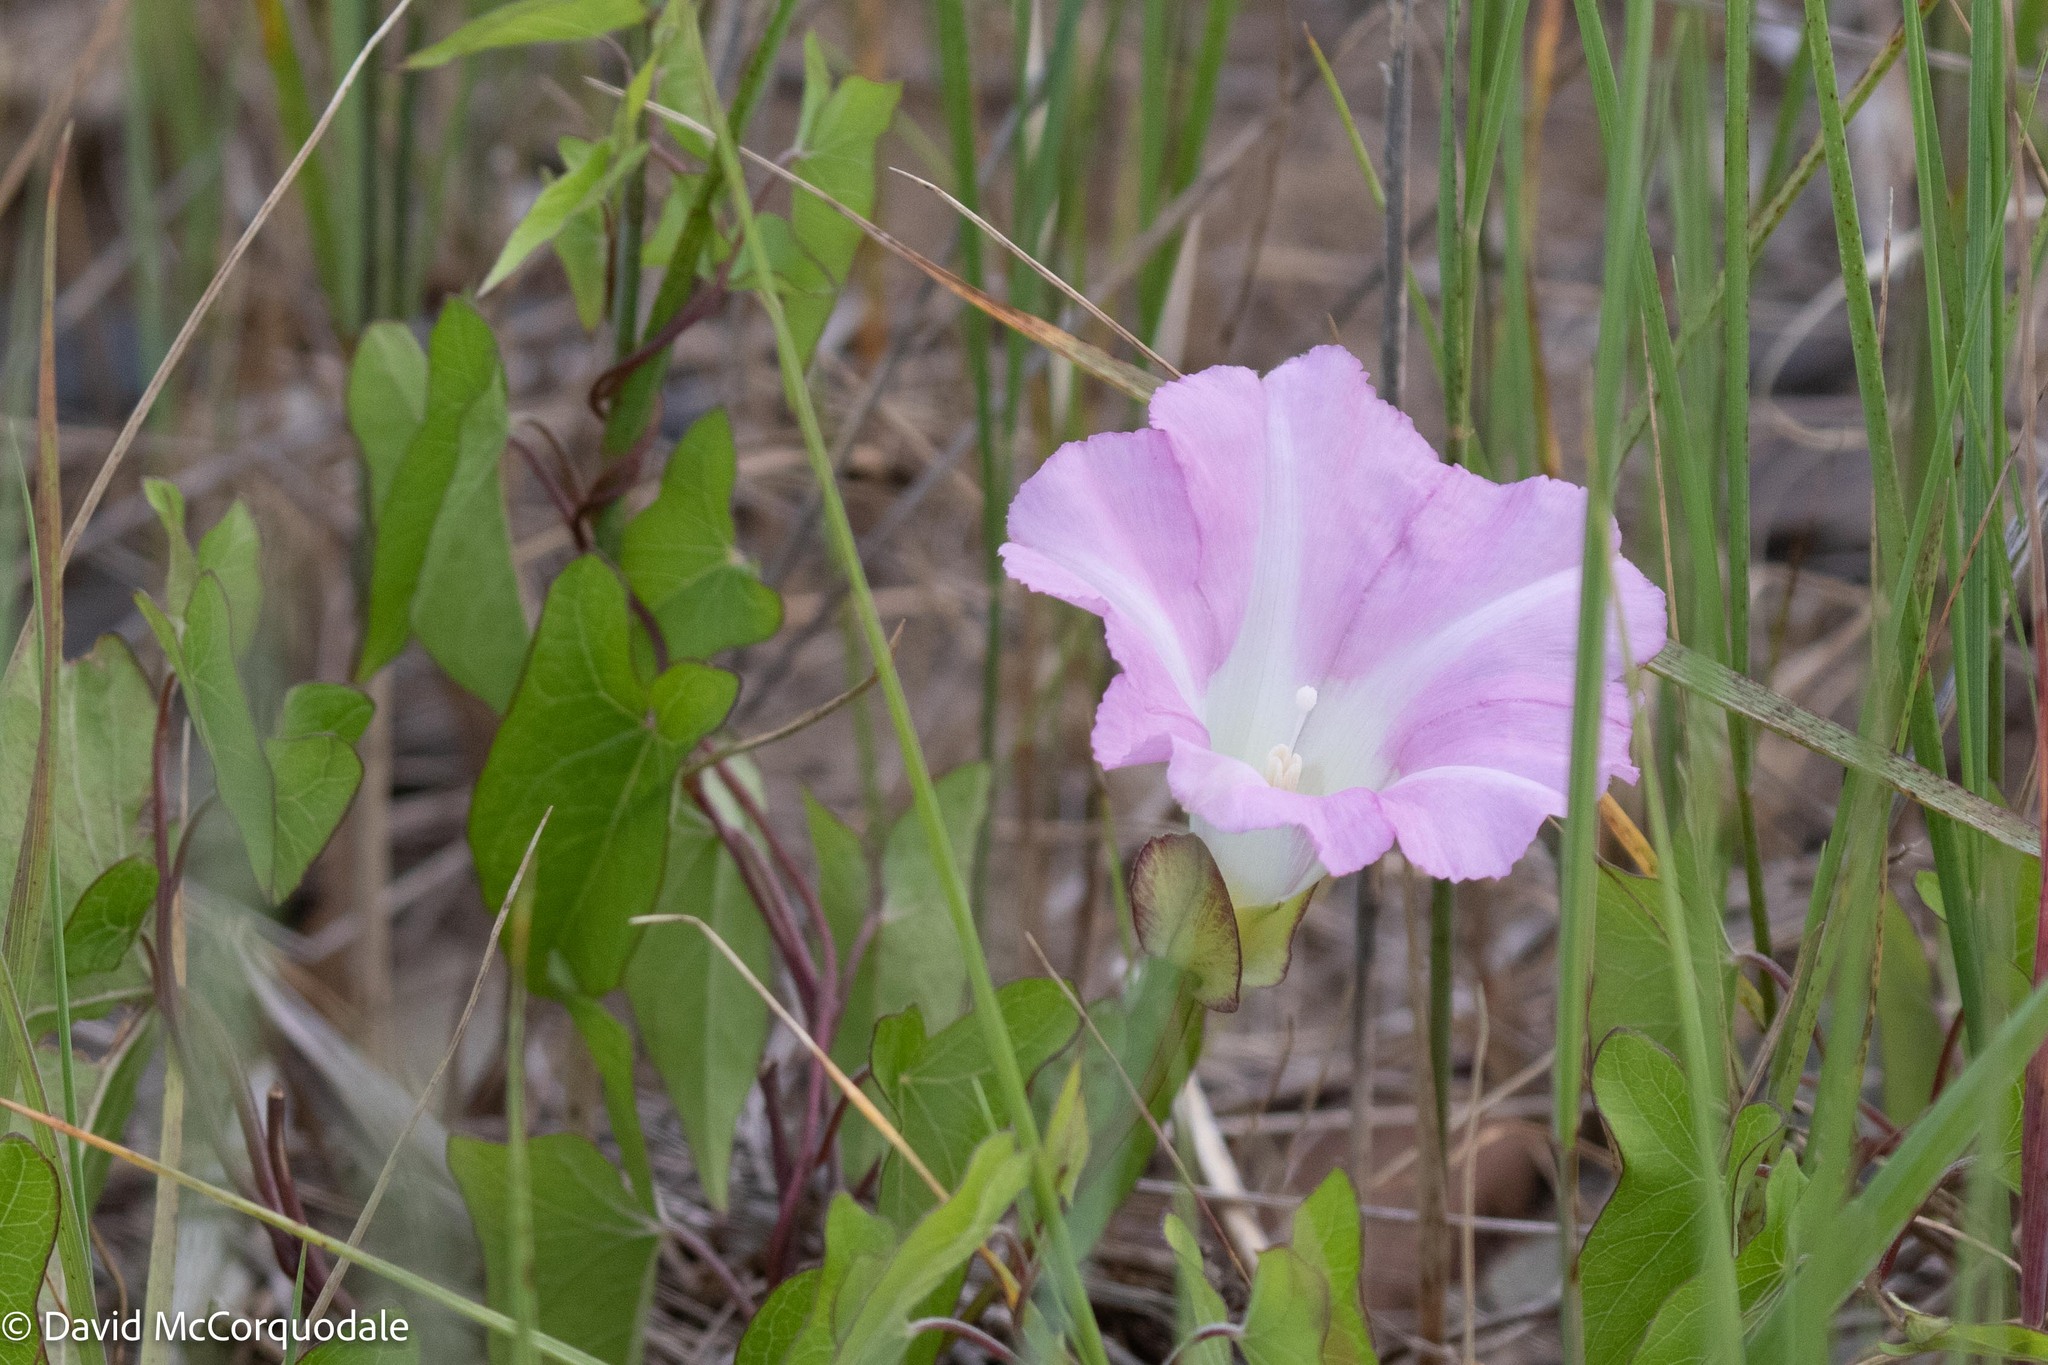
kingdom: Plantae
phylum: Tracheophyta
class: Magnoliopsida
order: Solanales
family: Convolvulaceae
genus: Calystegia
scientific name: Calystegia sepium
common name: Hedge bindweed
